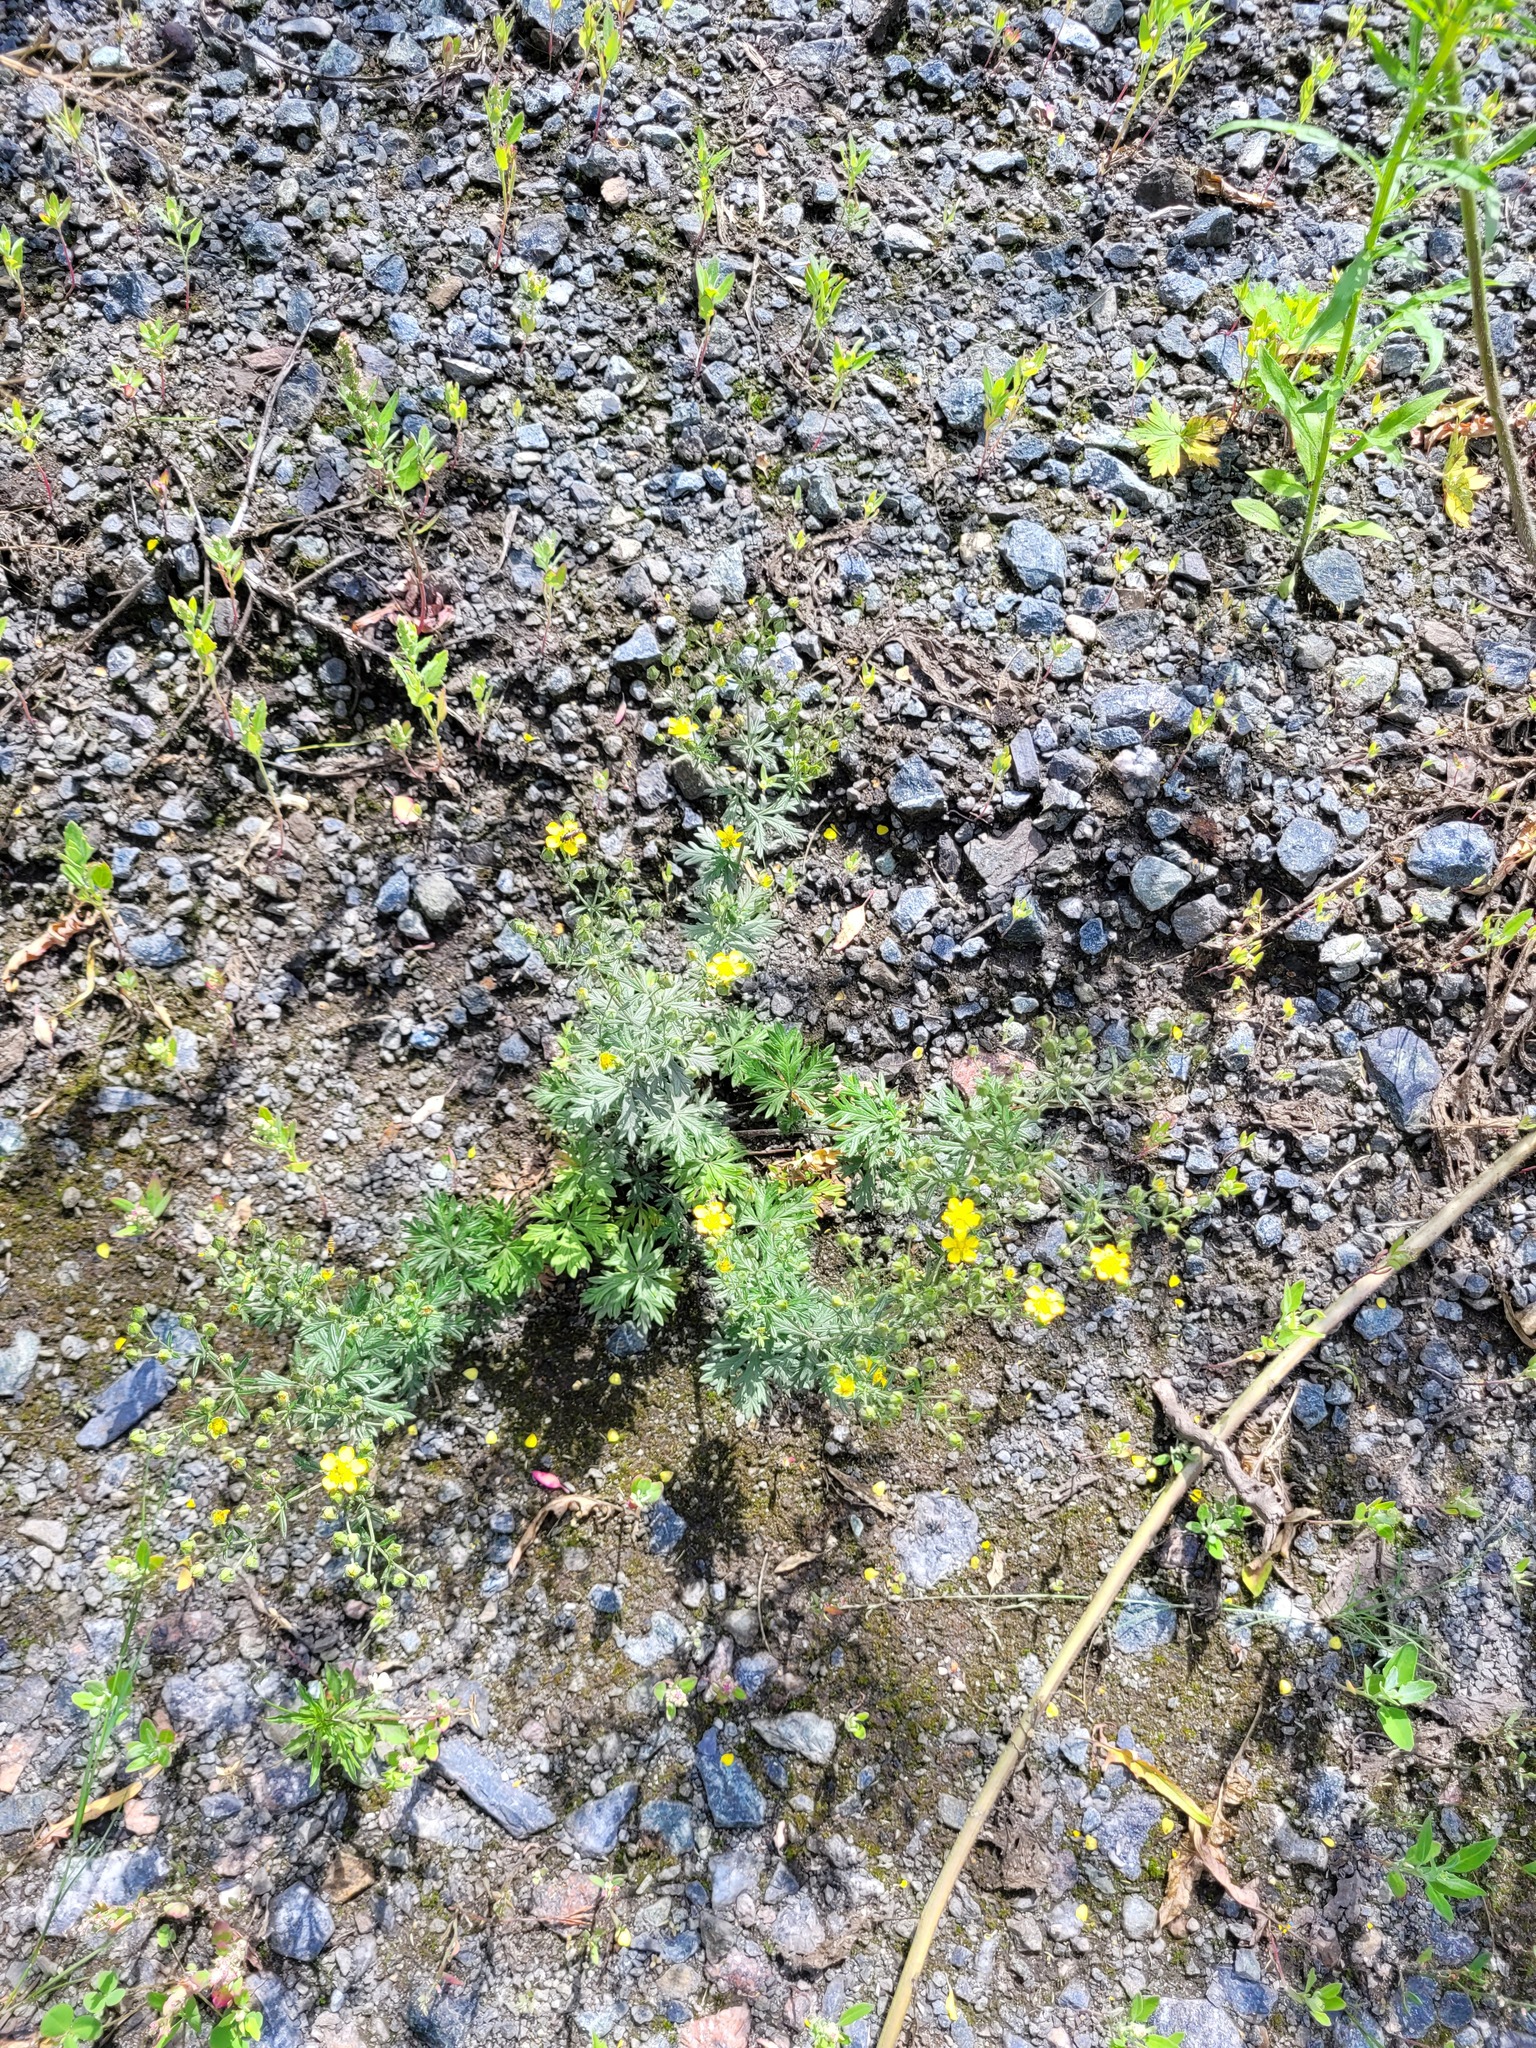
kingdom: Plantae
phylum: Tracheophyta
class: Magnoliopsida
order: Rosales
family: Rosaceae
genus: Potentilla
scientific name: Potentilla intermedia
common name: Downy cinquefoil
